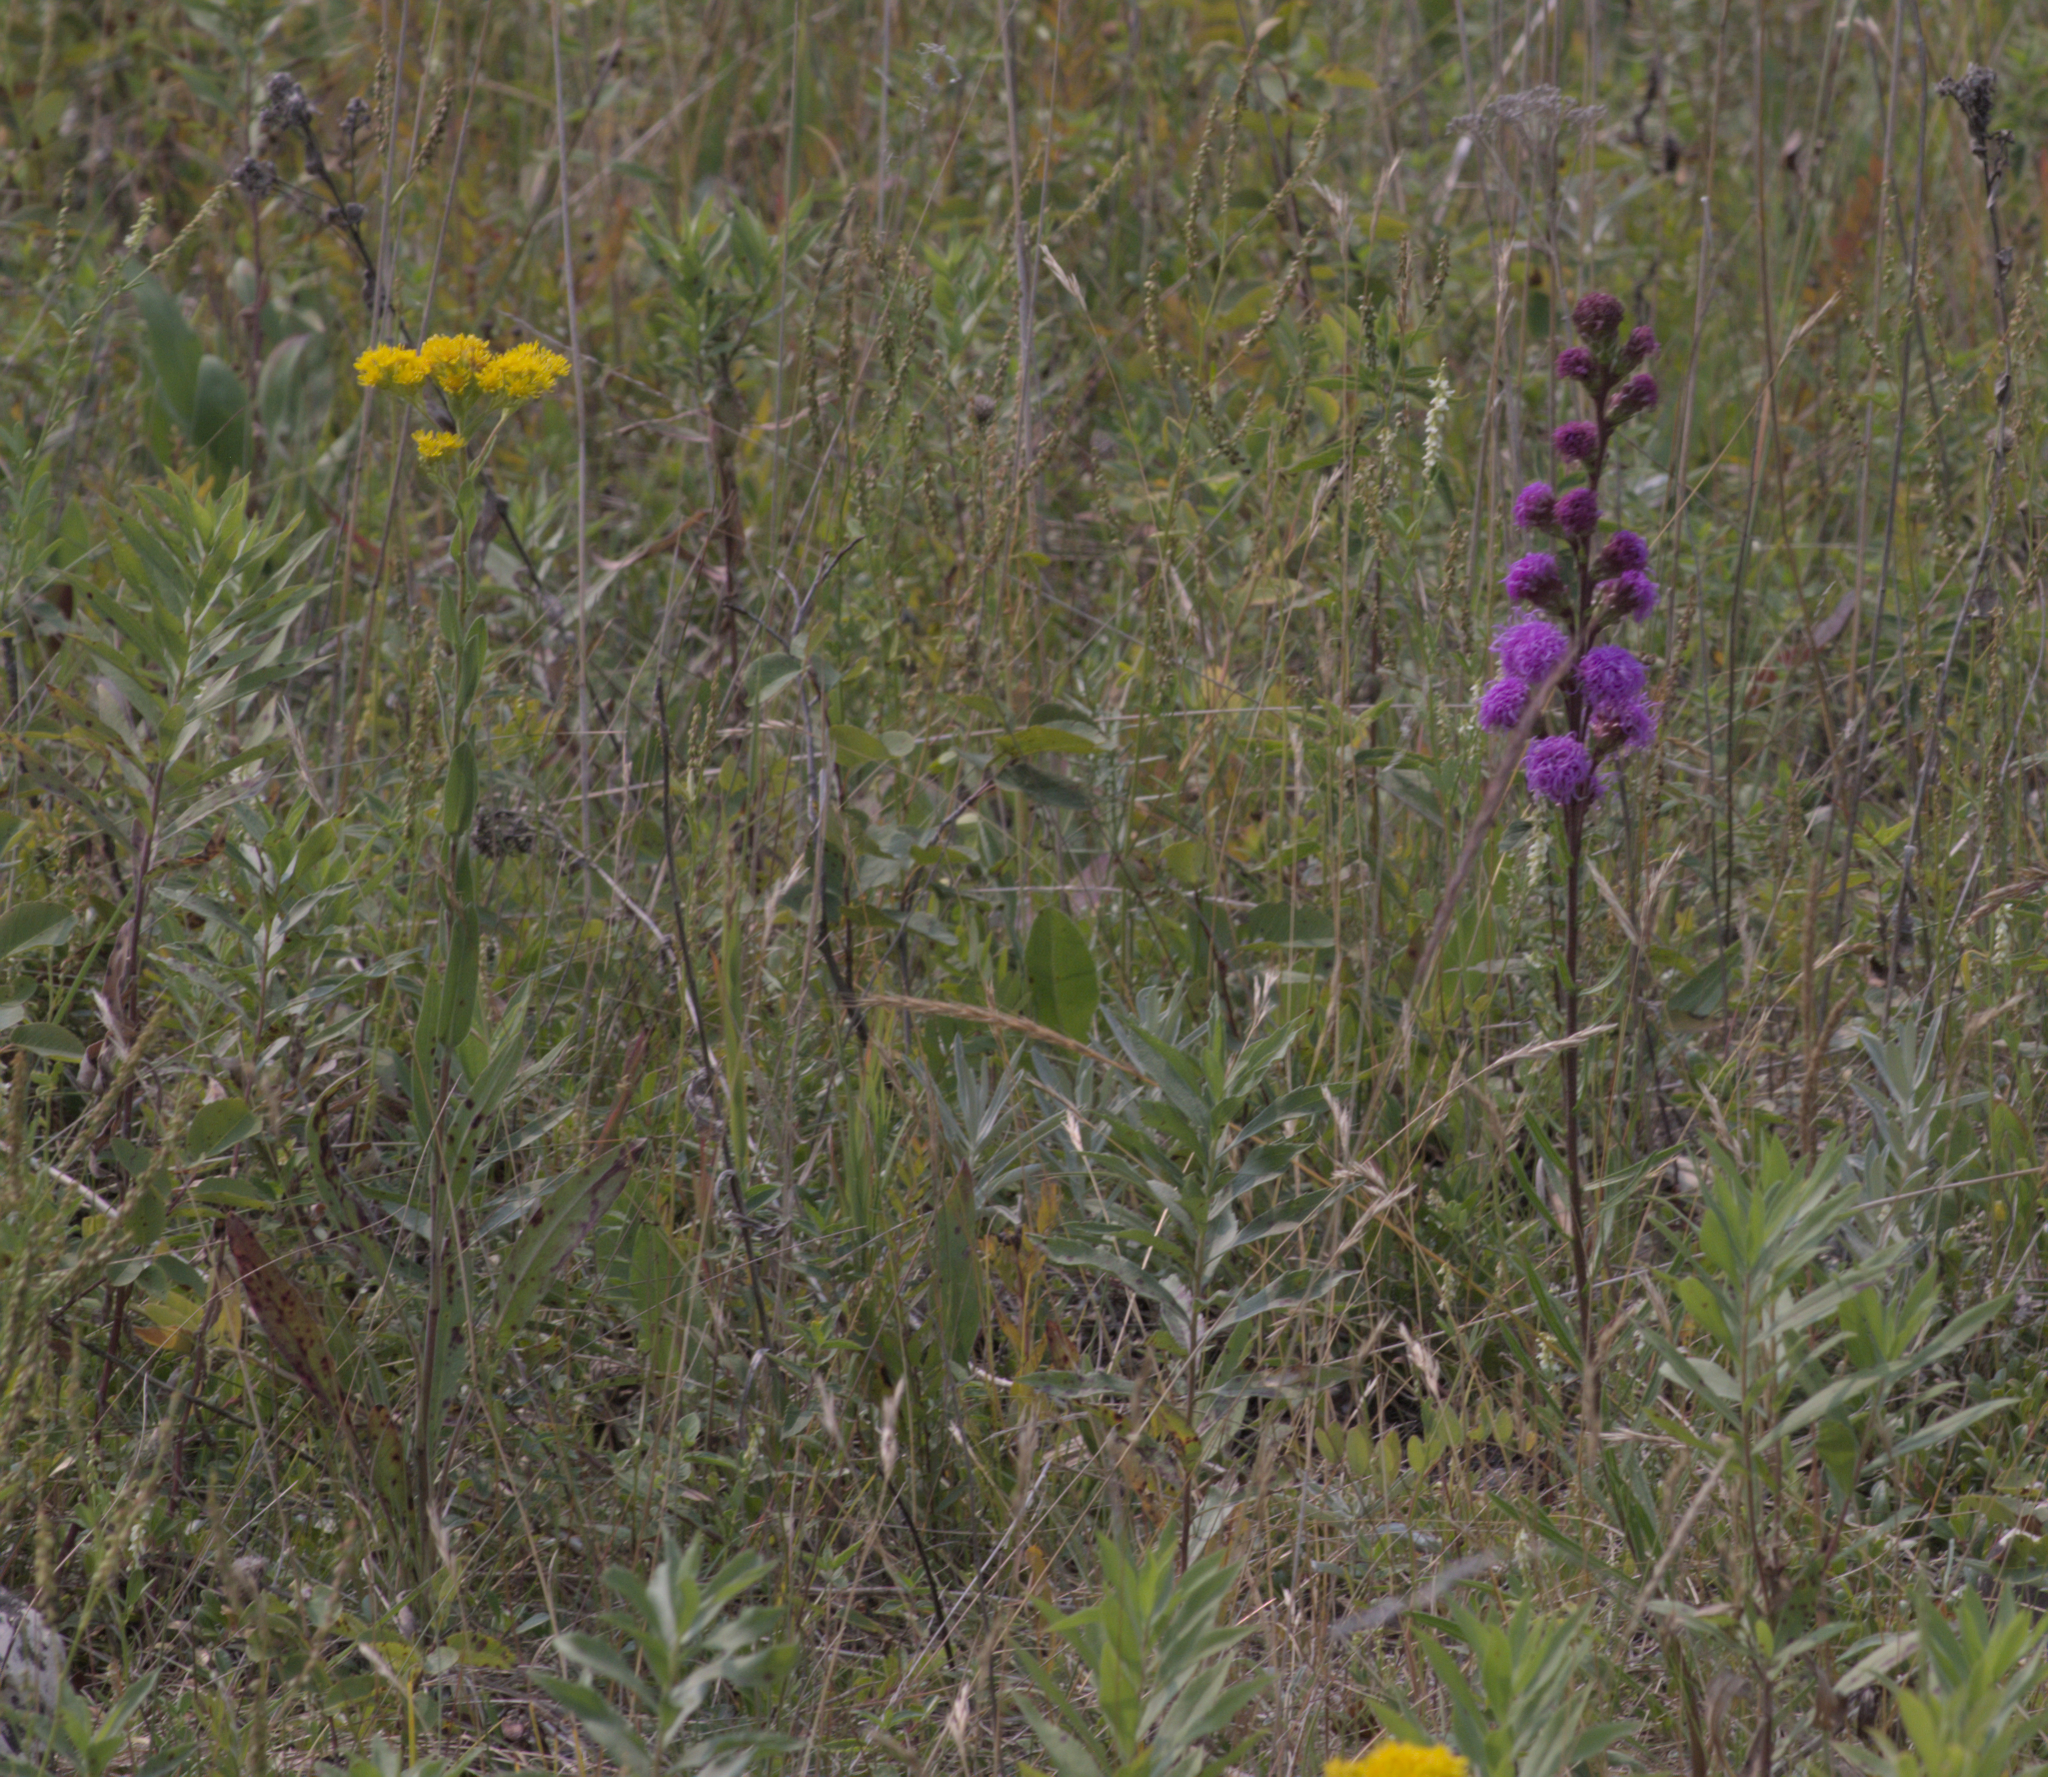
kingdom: Plantae
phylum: Tracheophyta
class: Magnoliopsida
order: Asterales
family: Asteraceae
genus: Liatris
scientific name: Liatris ligulistylis
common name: Northern plains gayfeather
